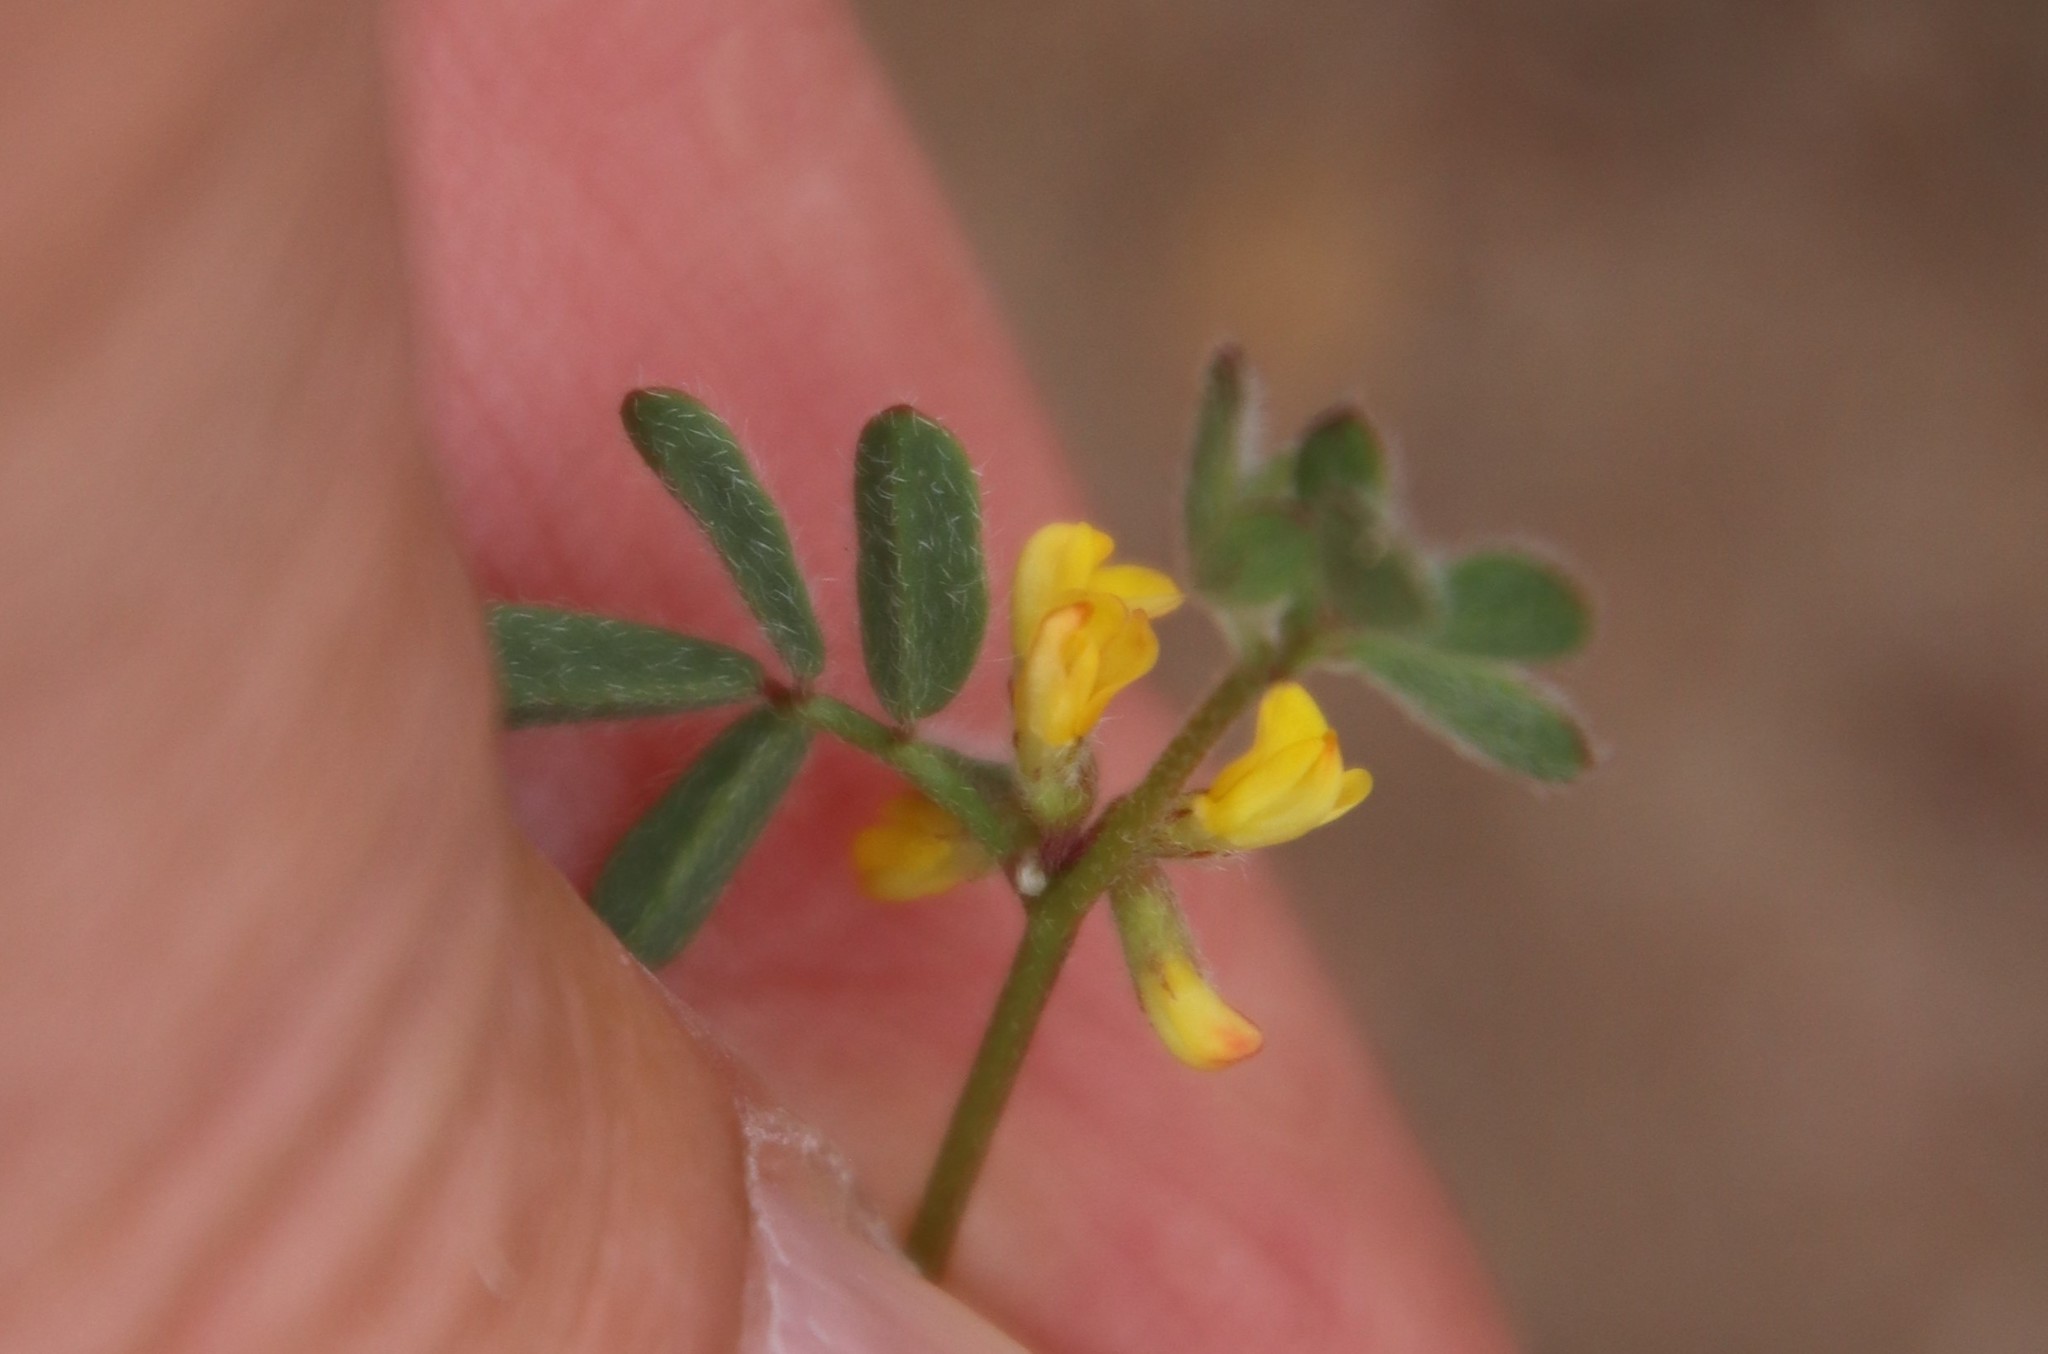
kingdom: Plantae
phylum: Tracheophyta
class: Magnoliopsida
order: Fabales
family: Fabaceae
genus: Acmispon
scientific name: Acmispon micranthus
